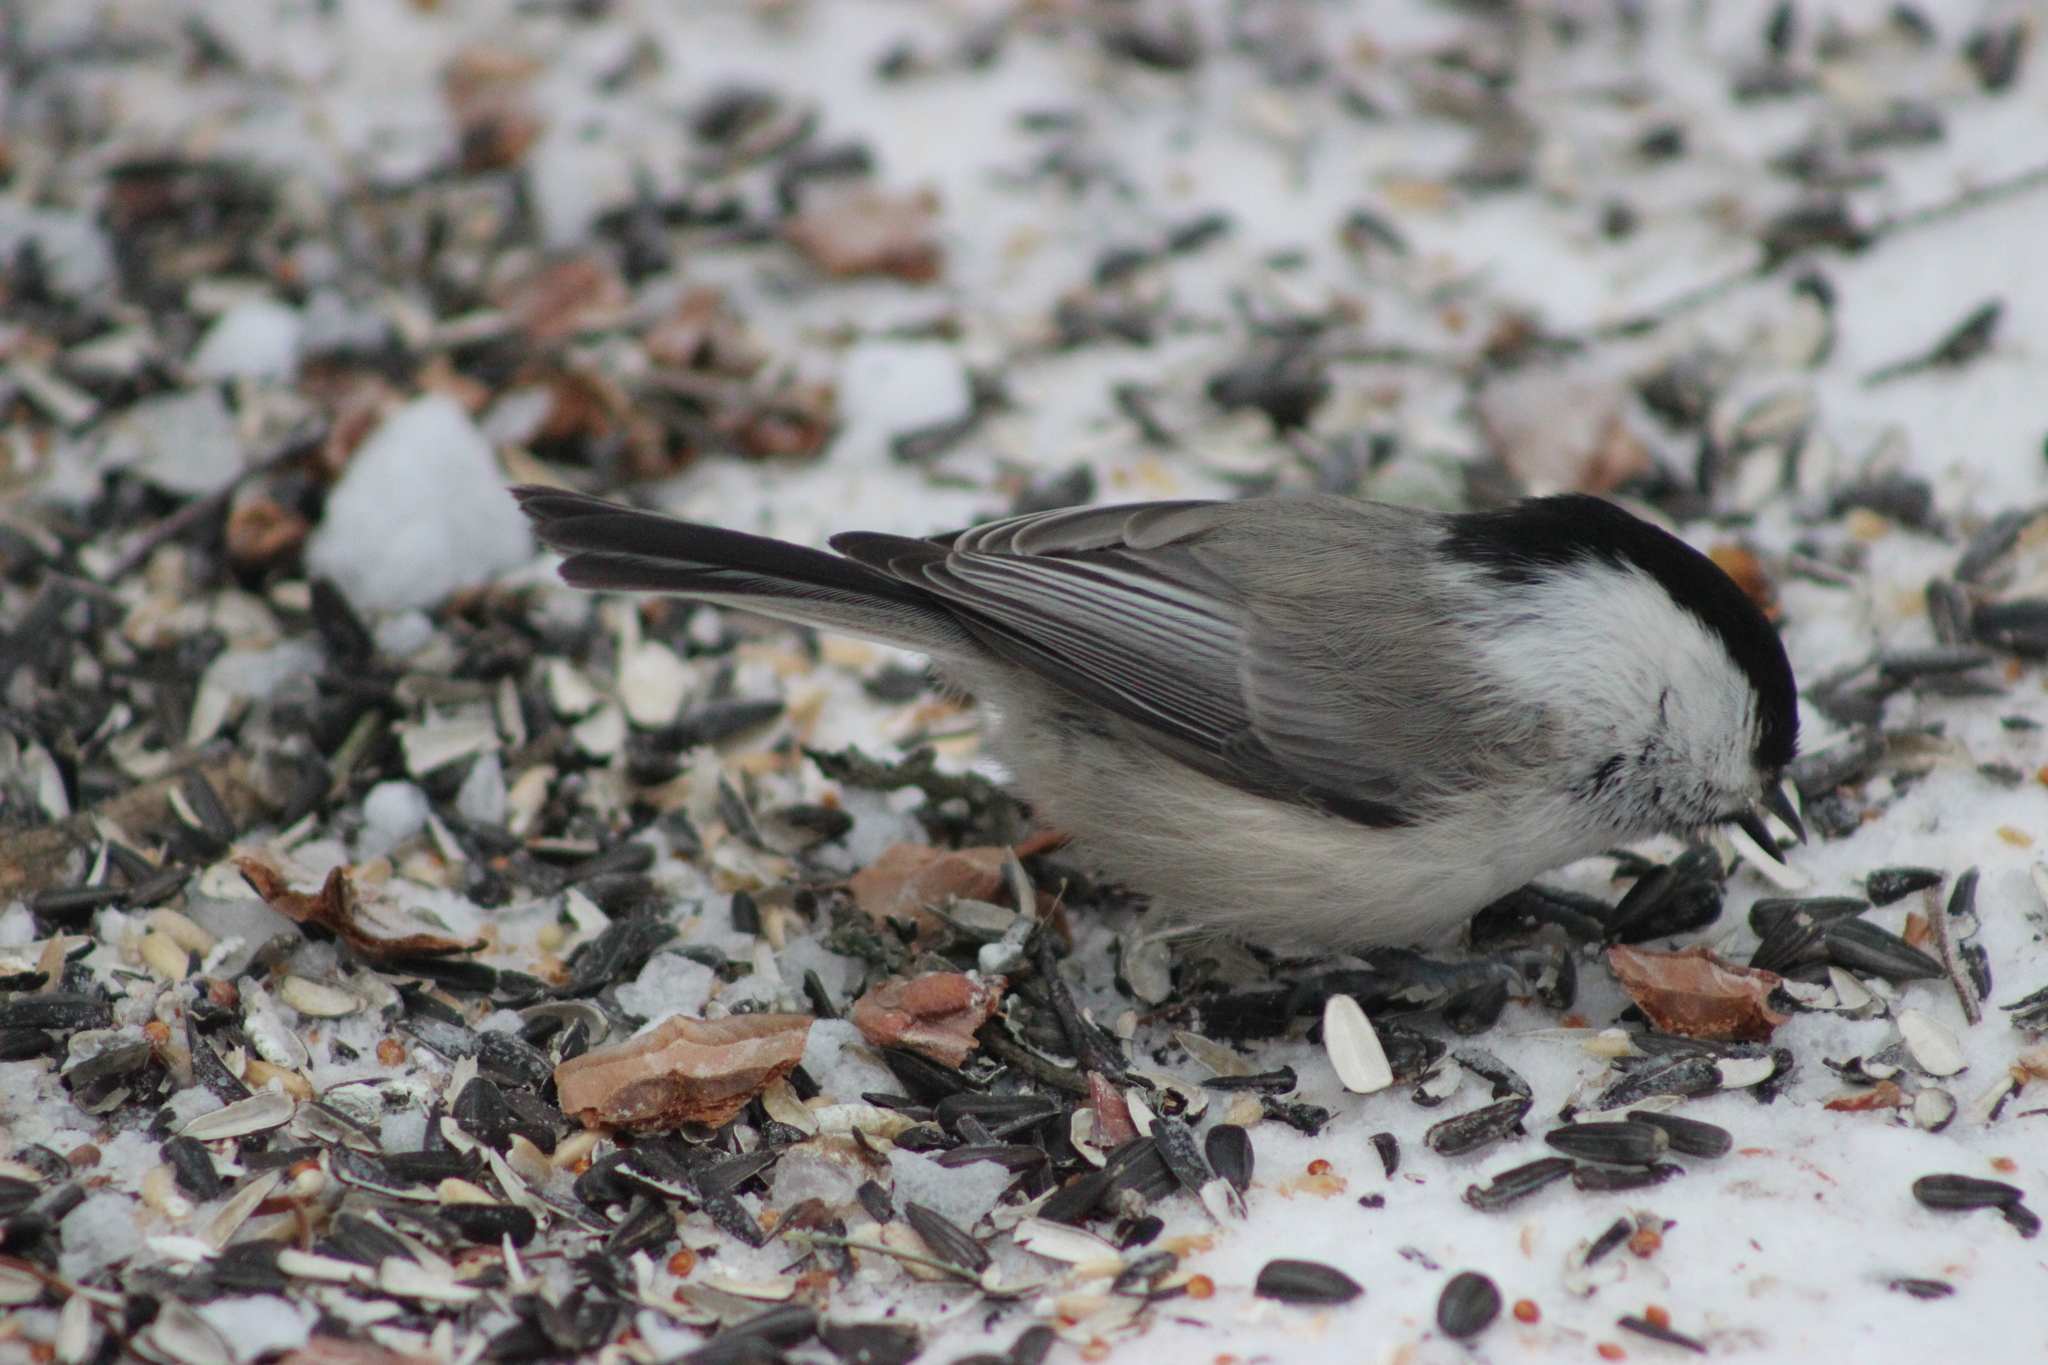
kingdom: Animalia
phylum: Chordata
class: Aves
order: Passeriformes
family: Paridae
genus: Poecile
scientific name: Poecile montanus
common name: Willow tit
